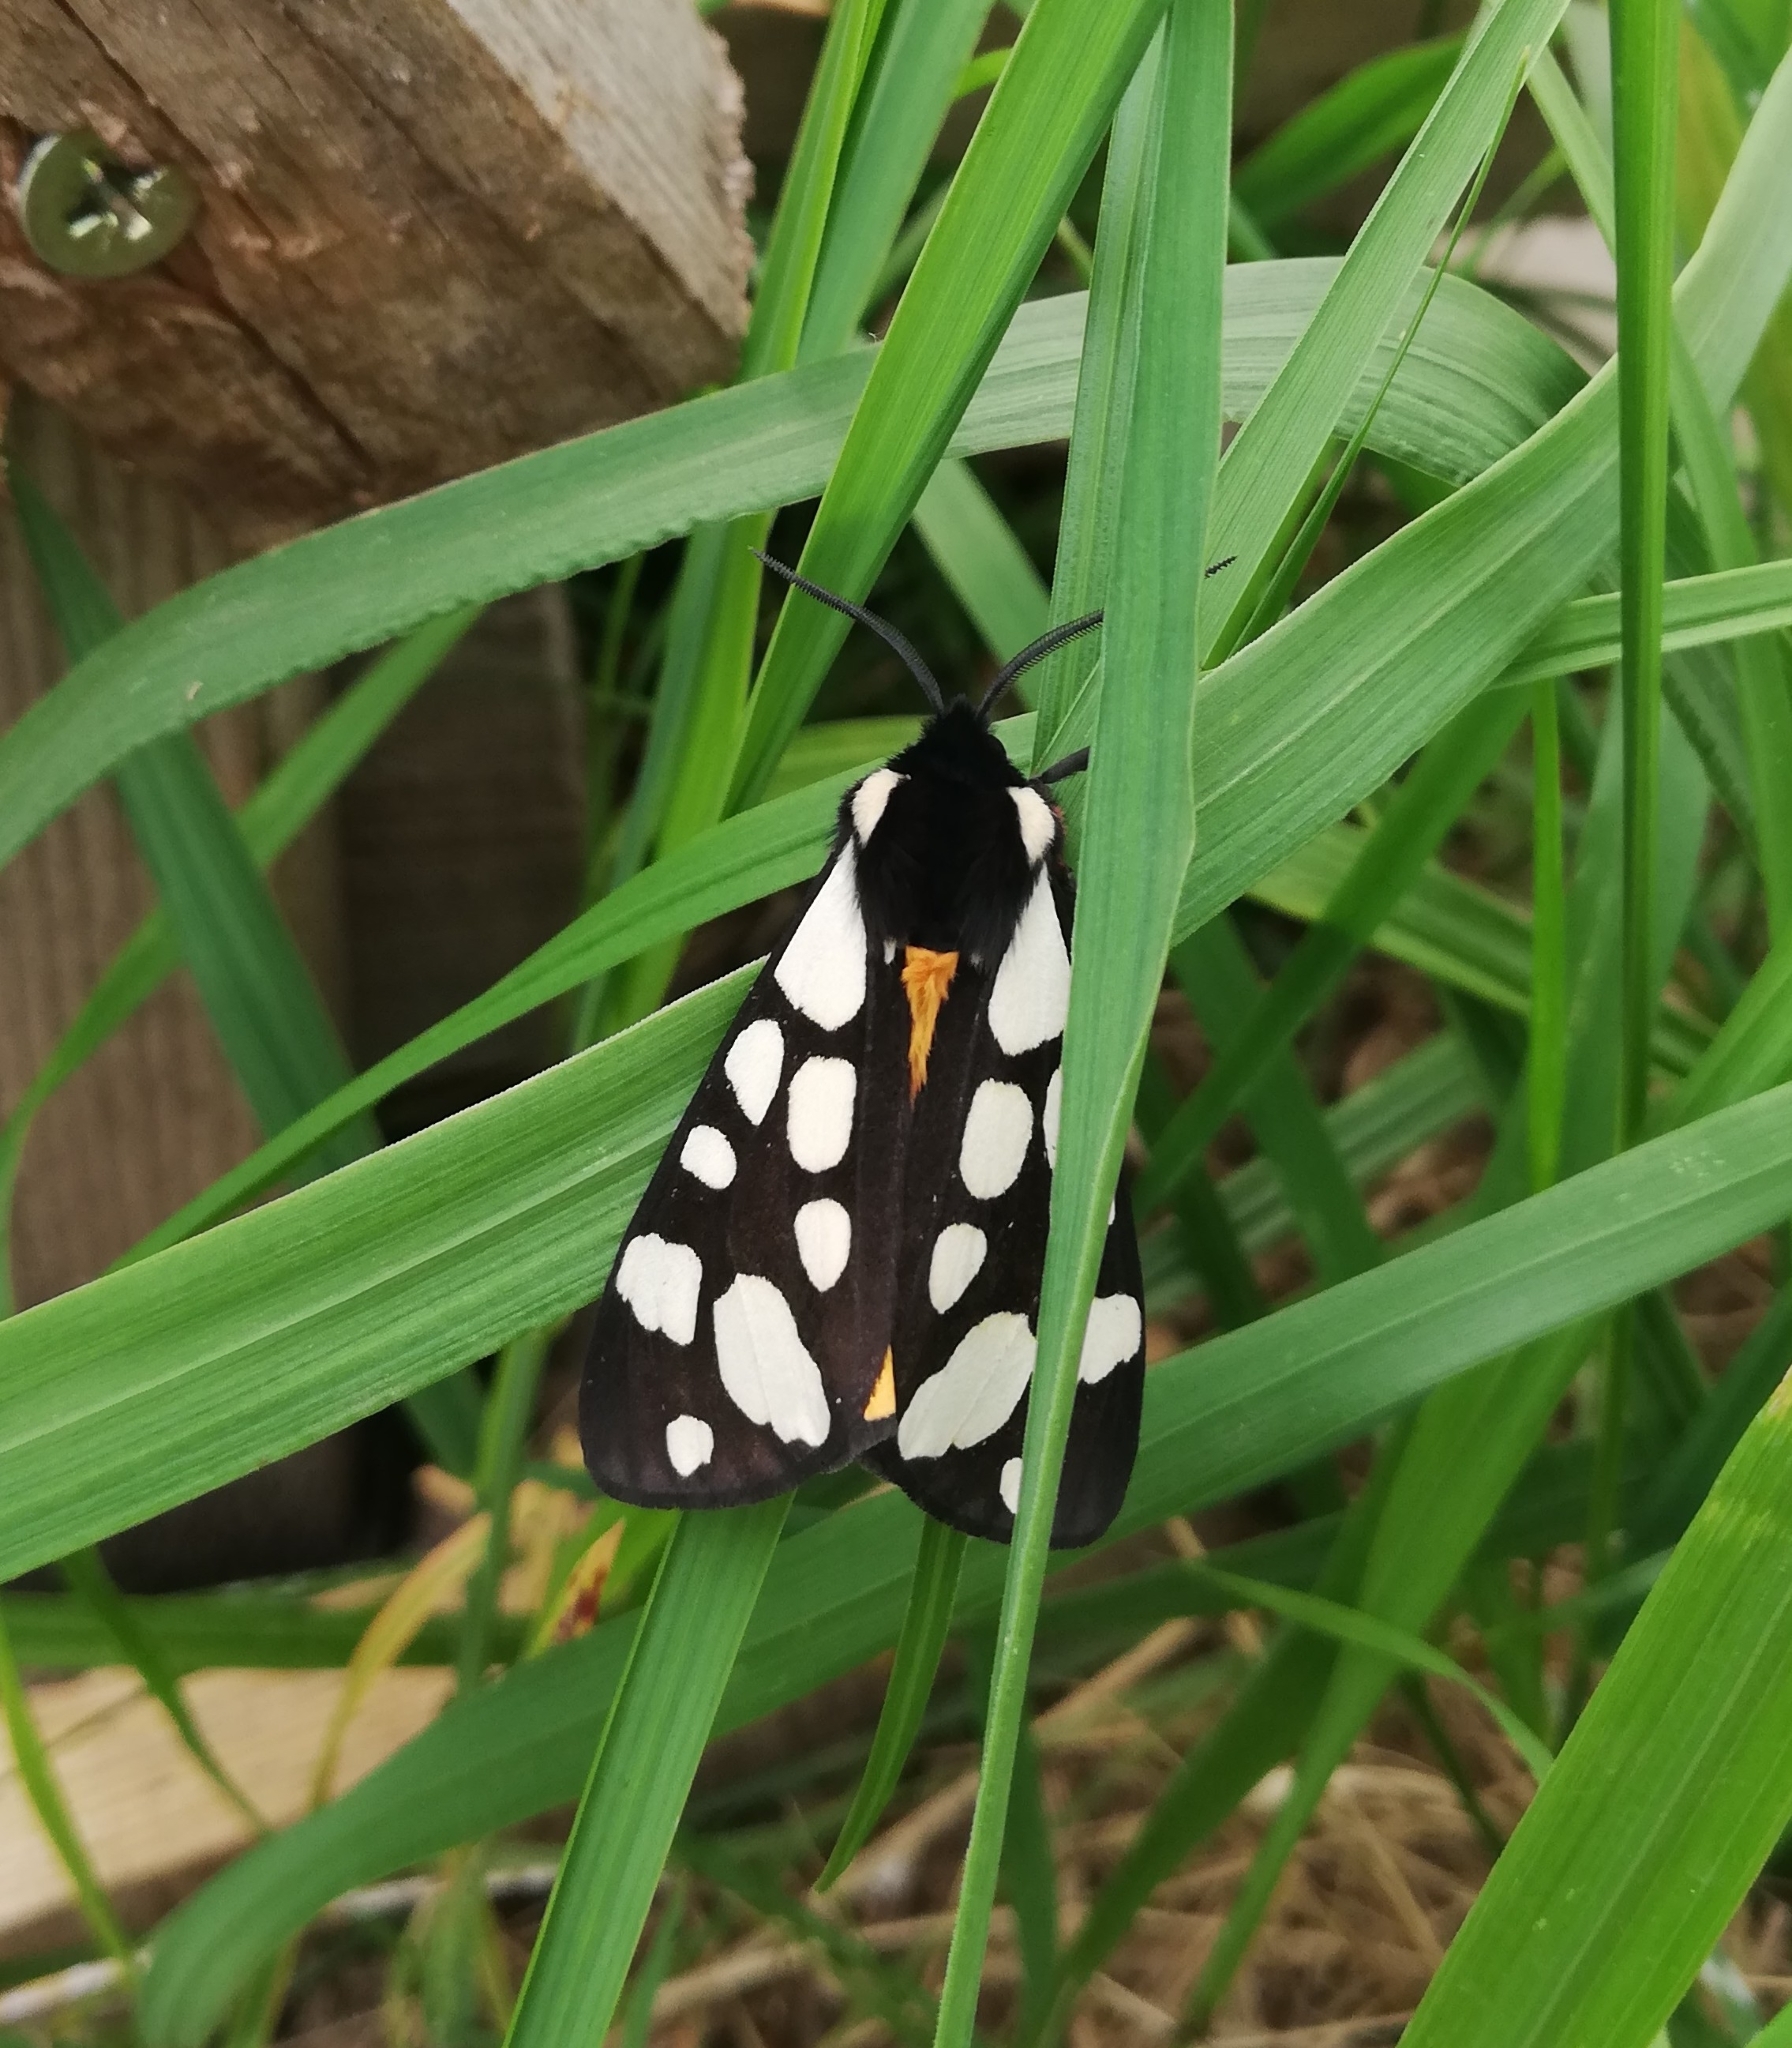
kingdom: Animalia
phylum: Arthropoda
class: Insecta
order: Lepidoptera
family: Erebidae
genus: Epicallia
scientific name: Epicallia villica
